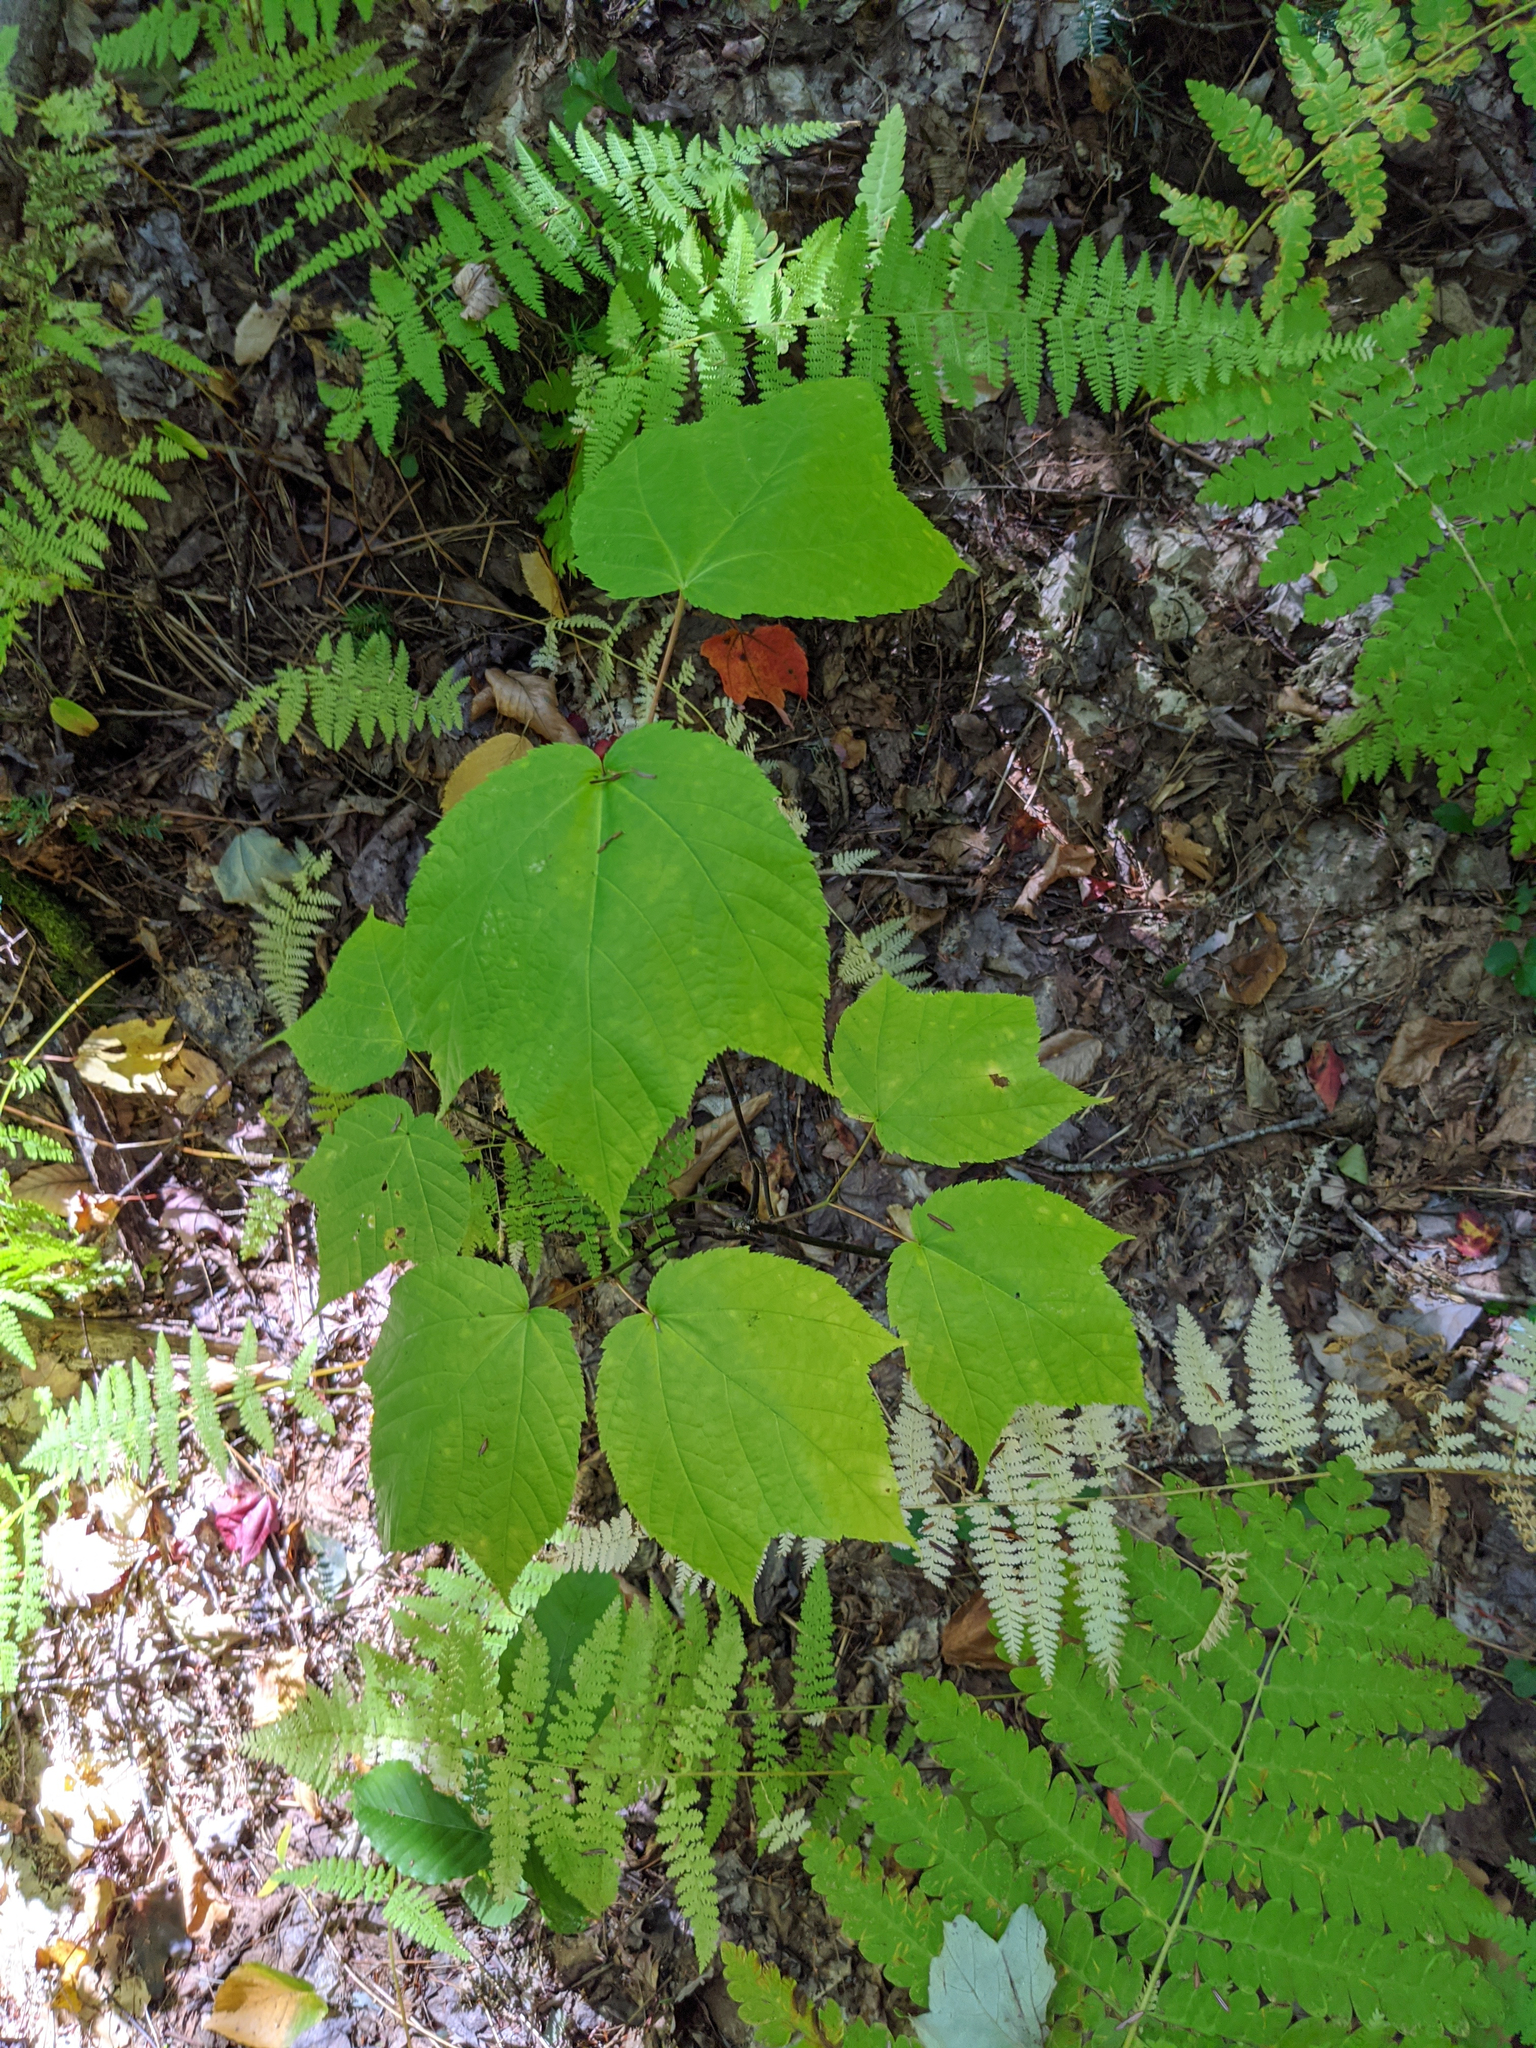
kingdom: Plantae
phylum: Tracheophyta
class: Magnoliopsida
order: Sapindales
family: Sapindaceae
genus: Acer
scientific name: Acer pensylvanicum
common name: Moosewood
